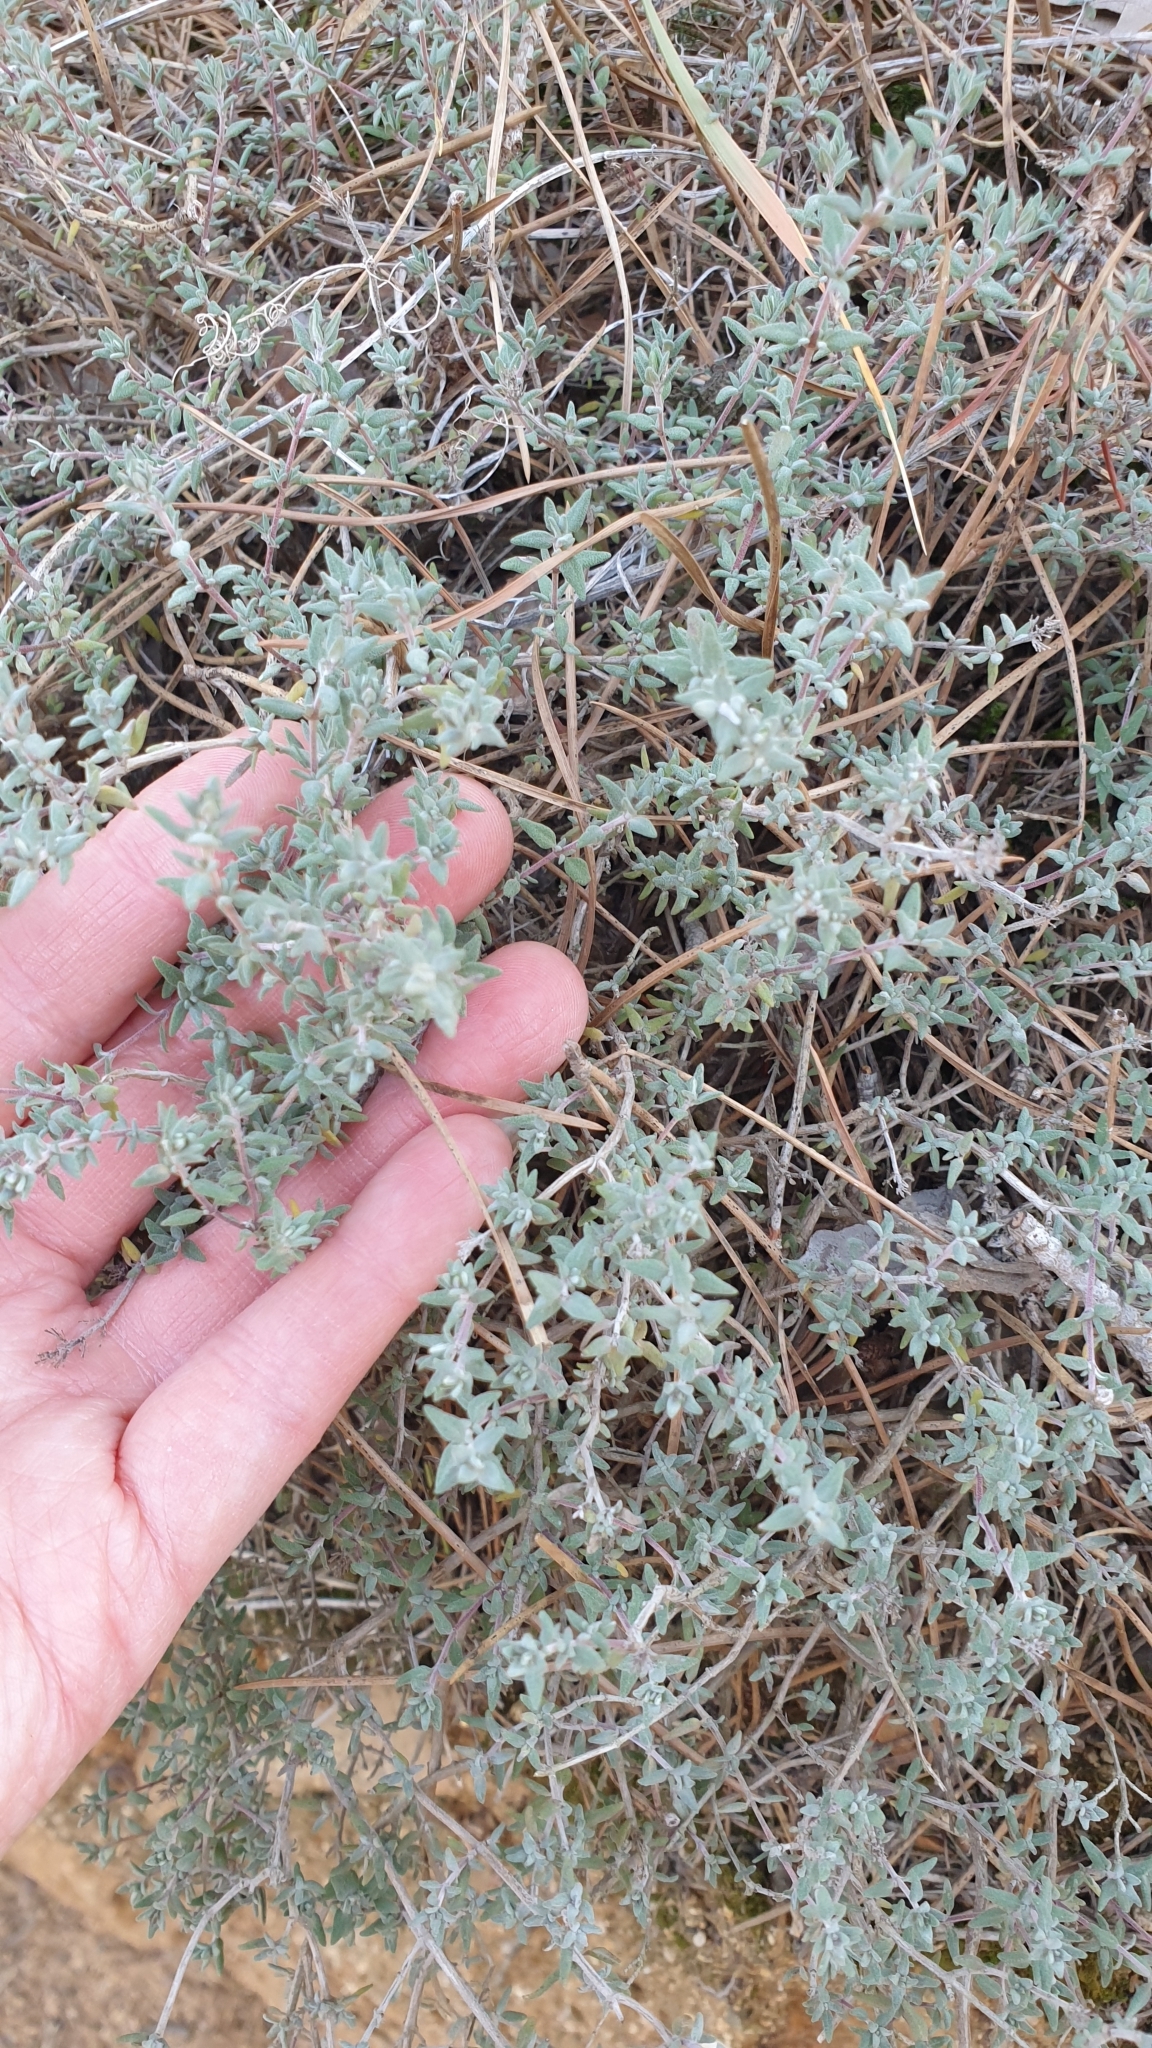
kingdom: Plantae
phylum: Tracheophyta
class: Magnoliopsida
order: Lamiales
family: Lamiaceae
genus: Thymus
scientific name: Thymus vulgaris
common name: Garden thyme
